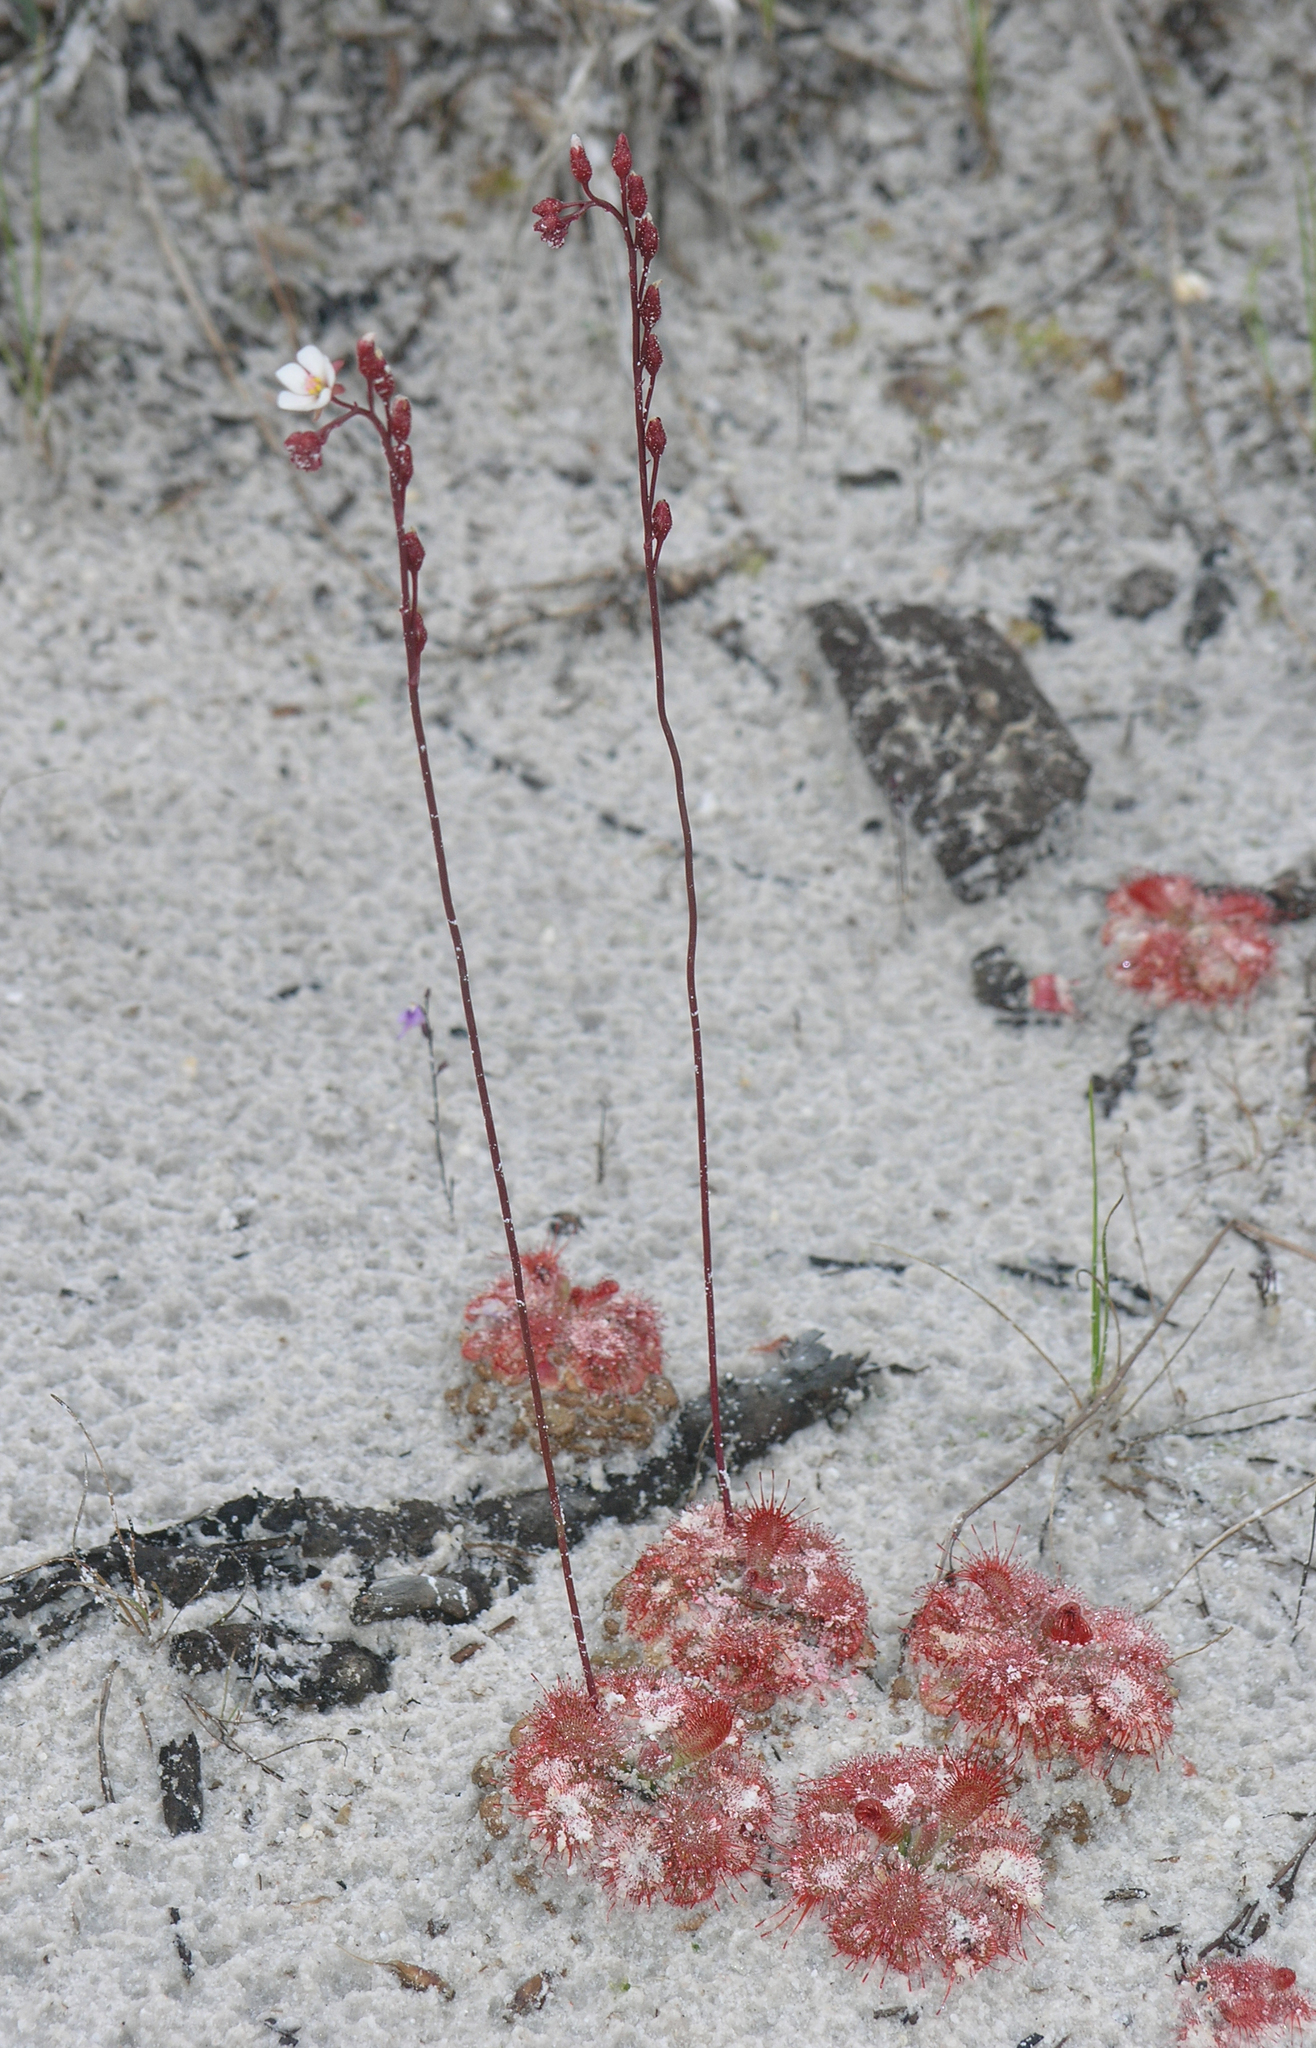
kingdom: Plantae
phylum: Tracheophyta
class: Magnoliopsida
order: Caryophyllales
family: Droseraceae
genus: Drosera
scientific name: Drosera spatulata
